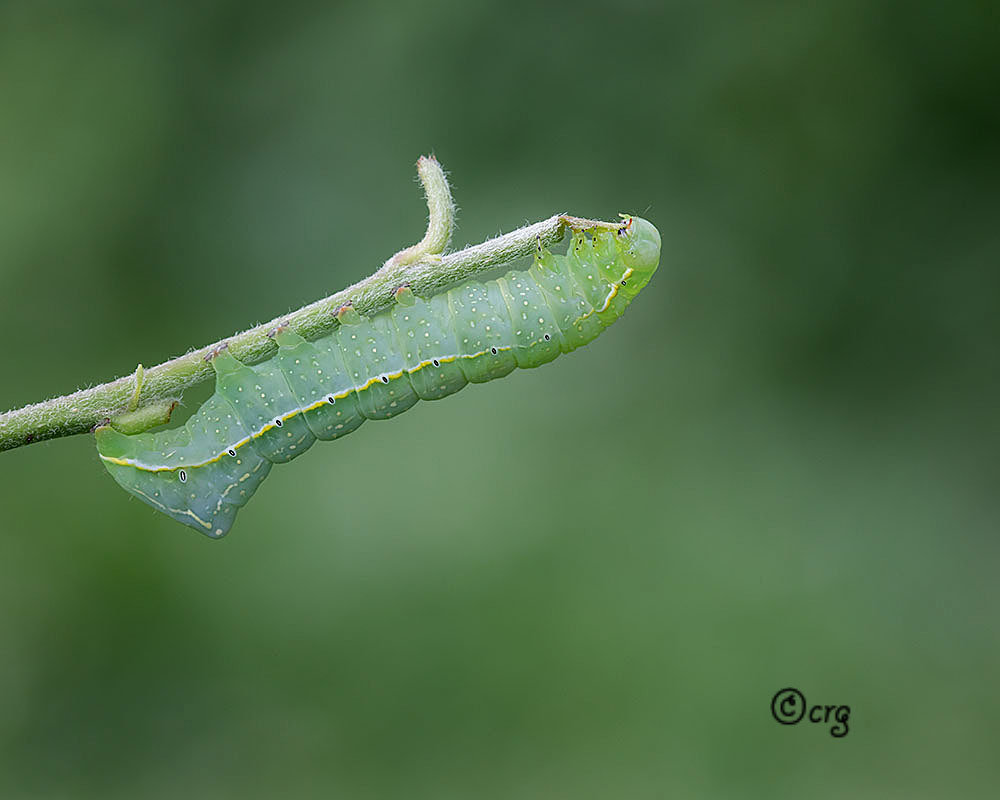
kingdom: Animalia
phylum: Arthropoda
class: Insecta
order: Lepidoptera
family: Noctuidae
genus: Amphipyra
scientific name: Amphipyra pyramidoides
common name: American copper underwing
